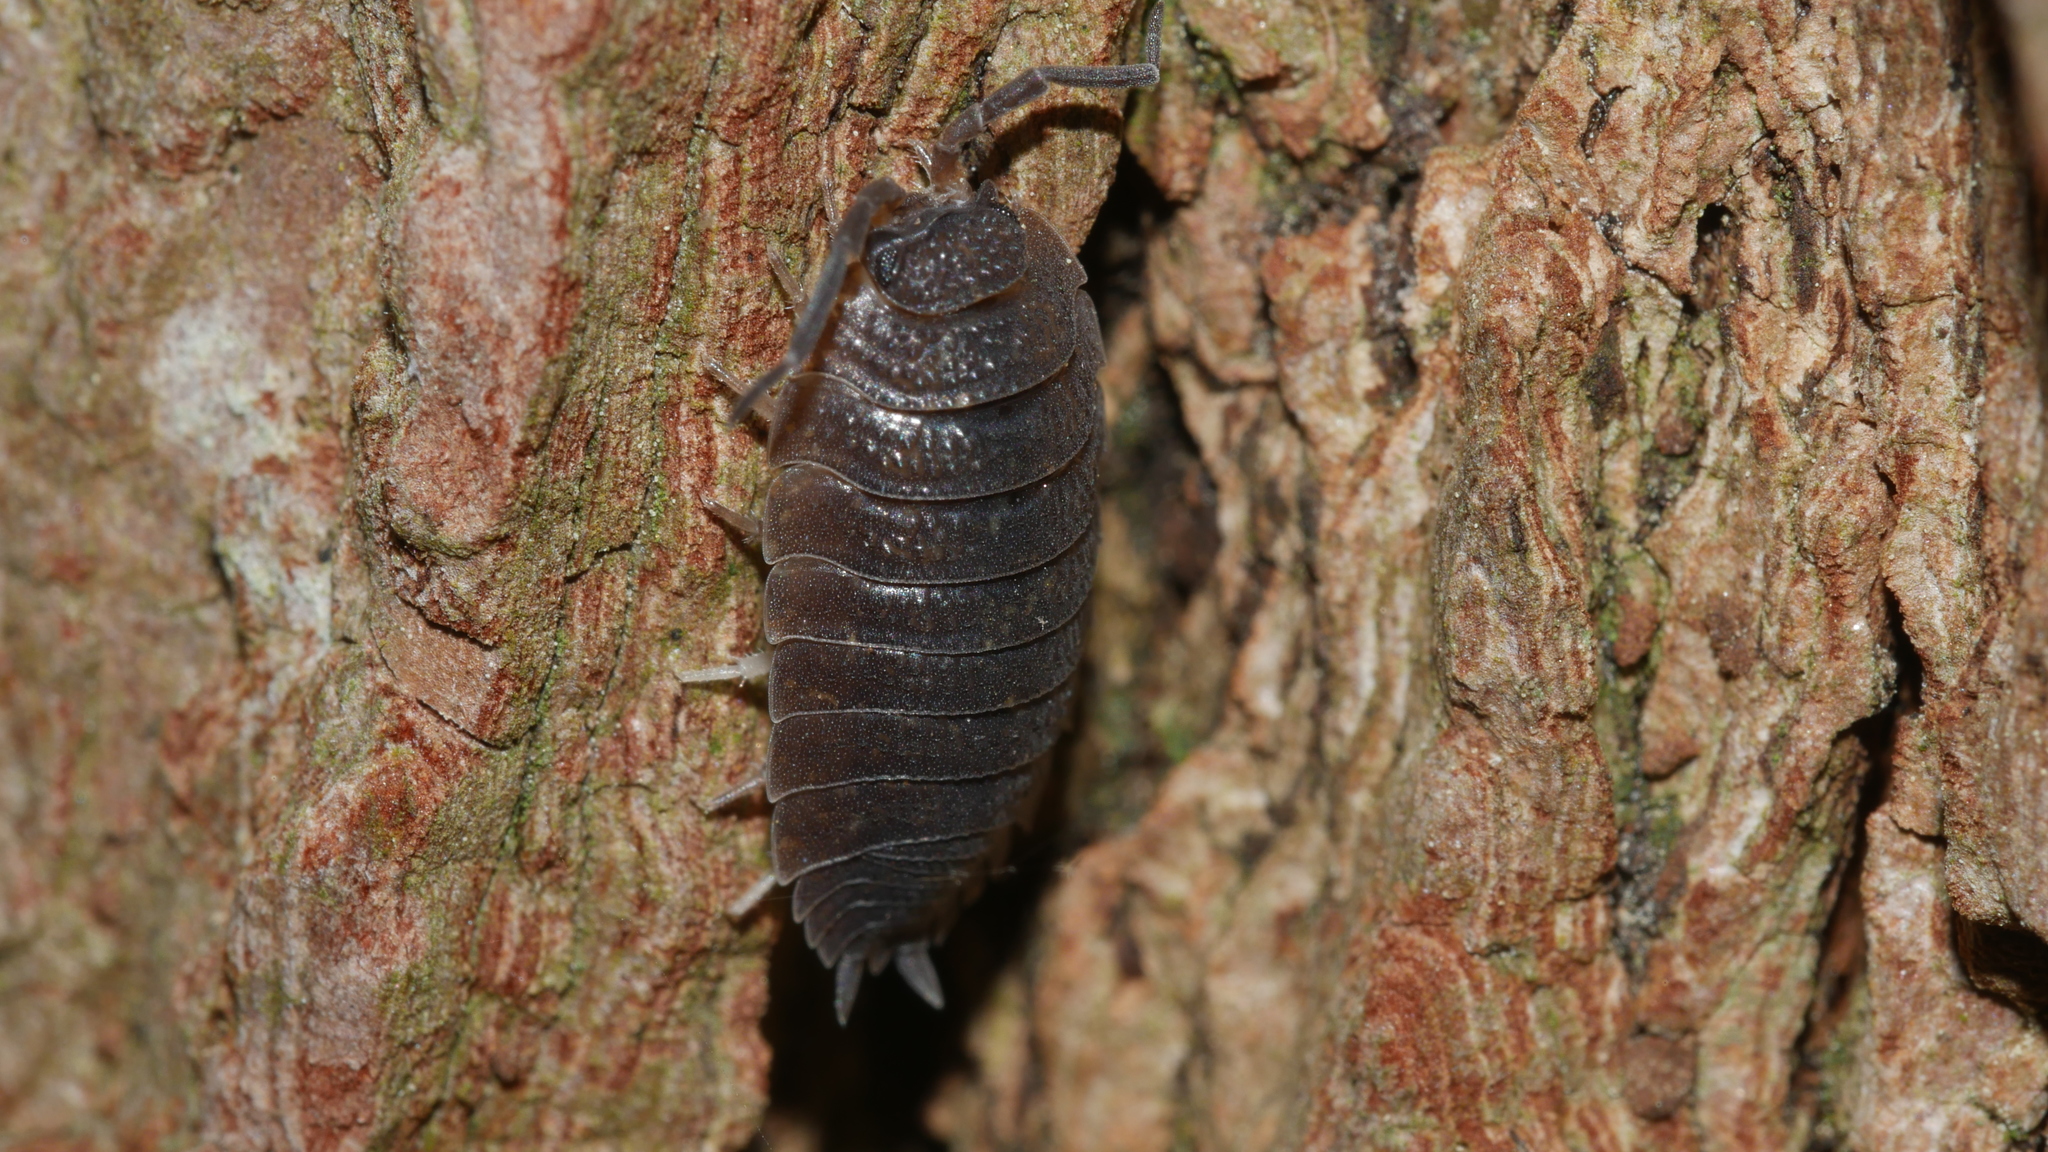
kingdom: Animalia
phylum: Arthropoda
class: Malacostraca
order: Isopoda
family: Porcellionidae
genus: Porcellio
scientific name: Porcellio scaber
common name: Common rough woodlouse
